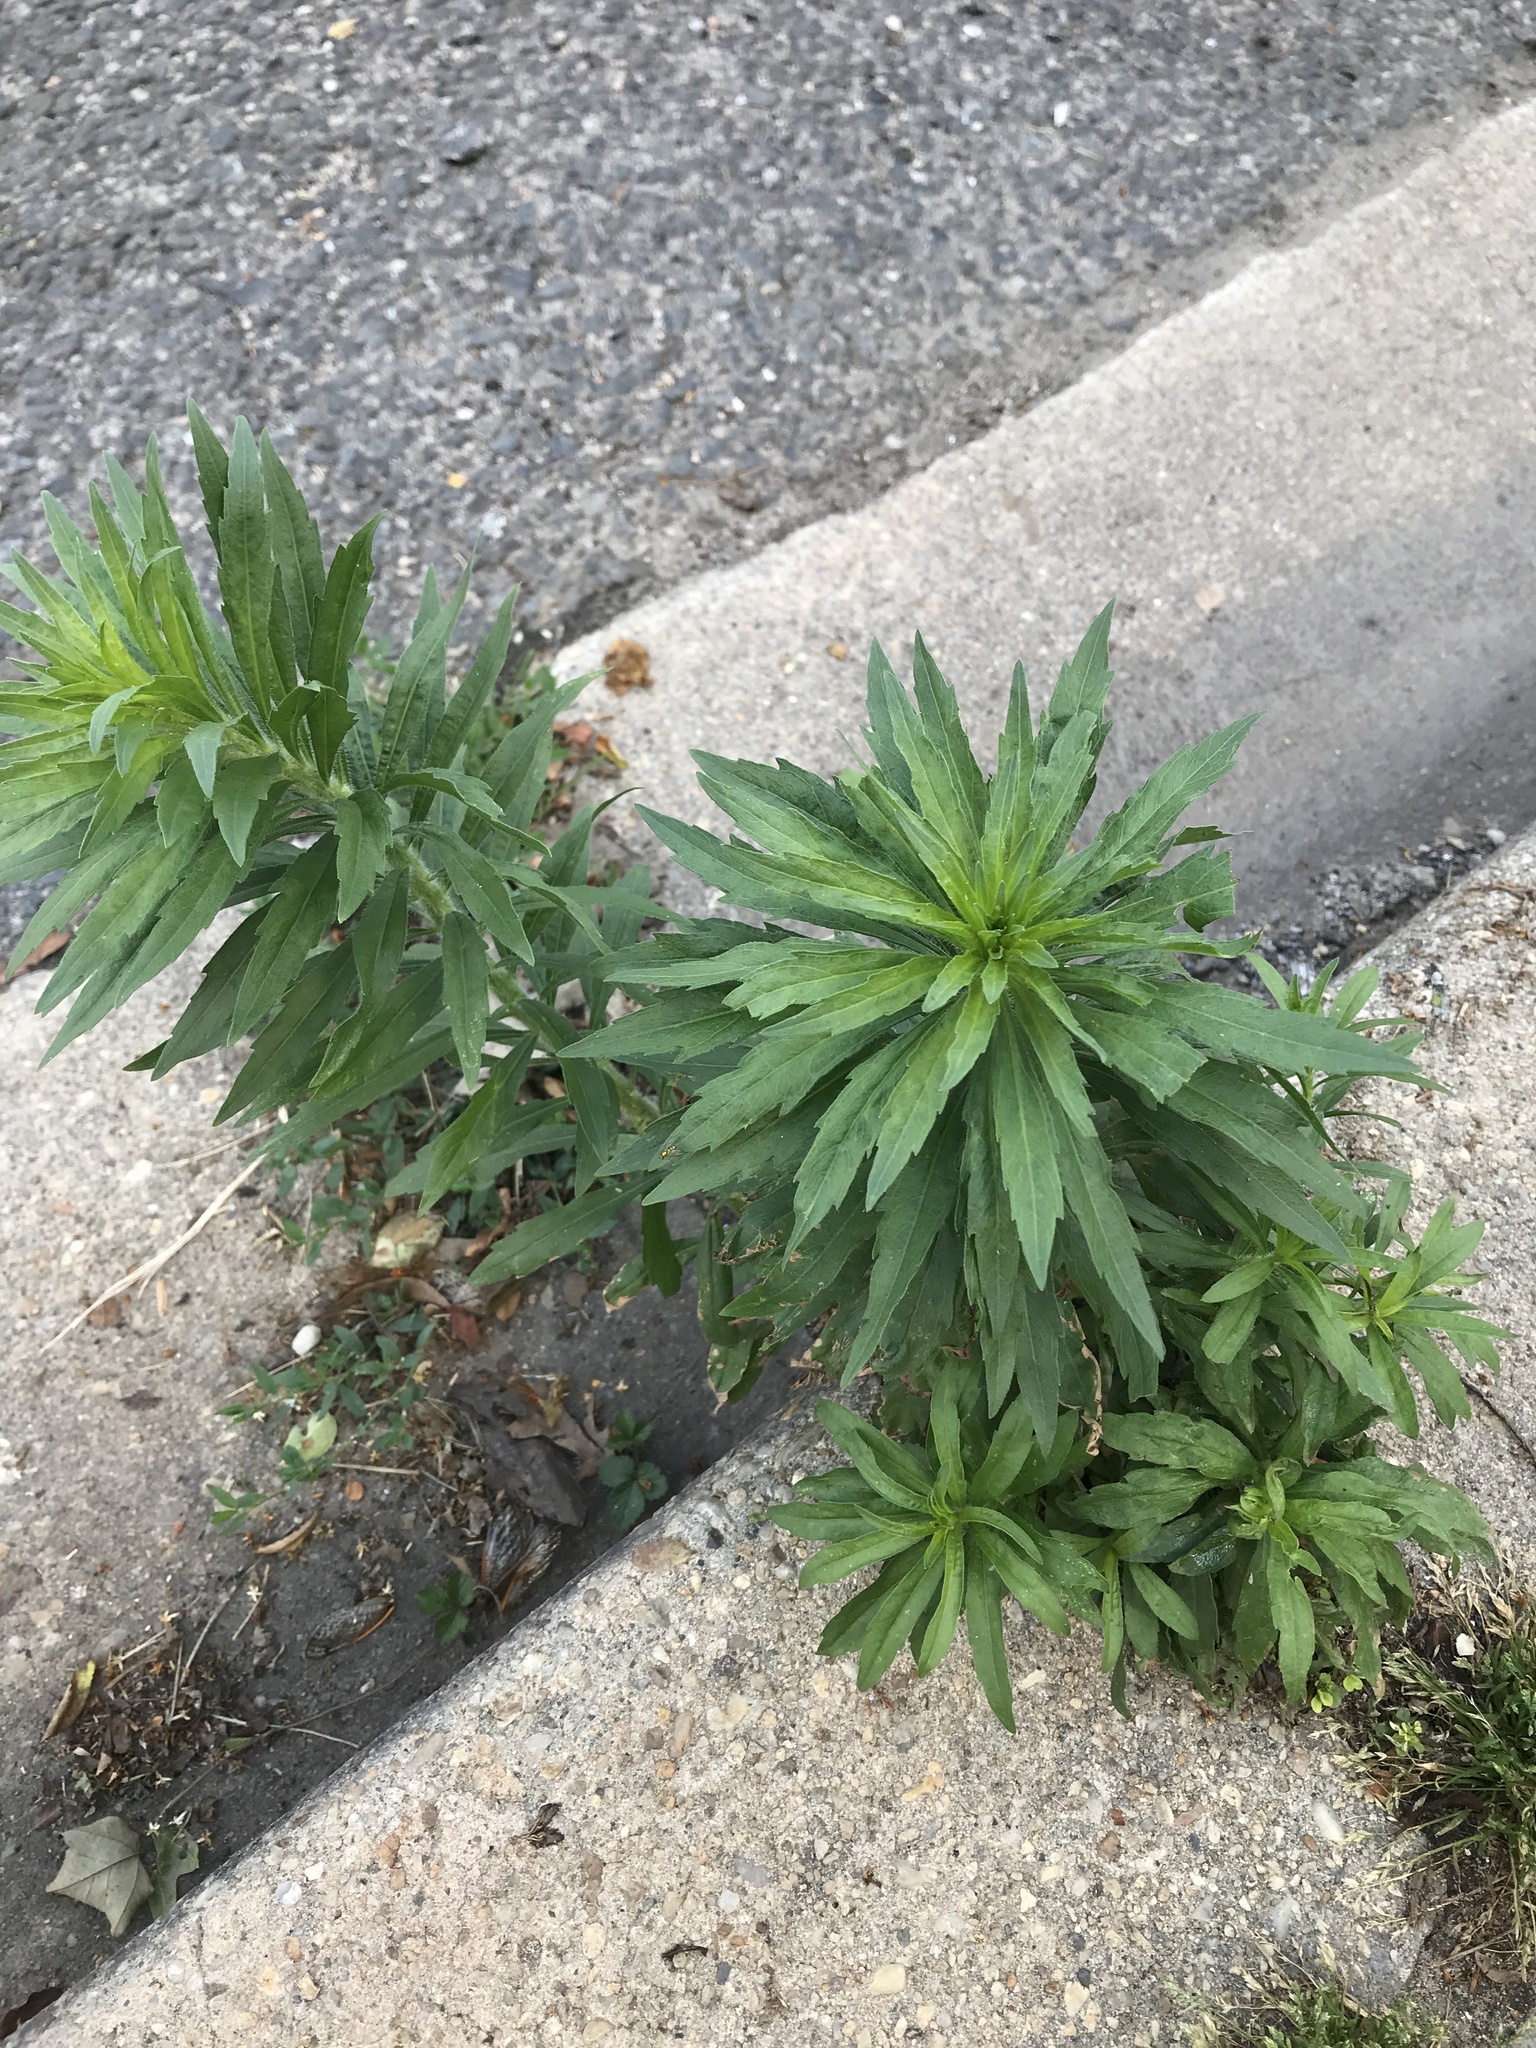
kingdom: Plantae
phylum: Tracheophyta
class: Magnoliopsida
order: Asterales
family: Asteraceae
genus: Erigeron
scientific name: Erigeron canadensis
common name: Canadian fleabane
